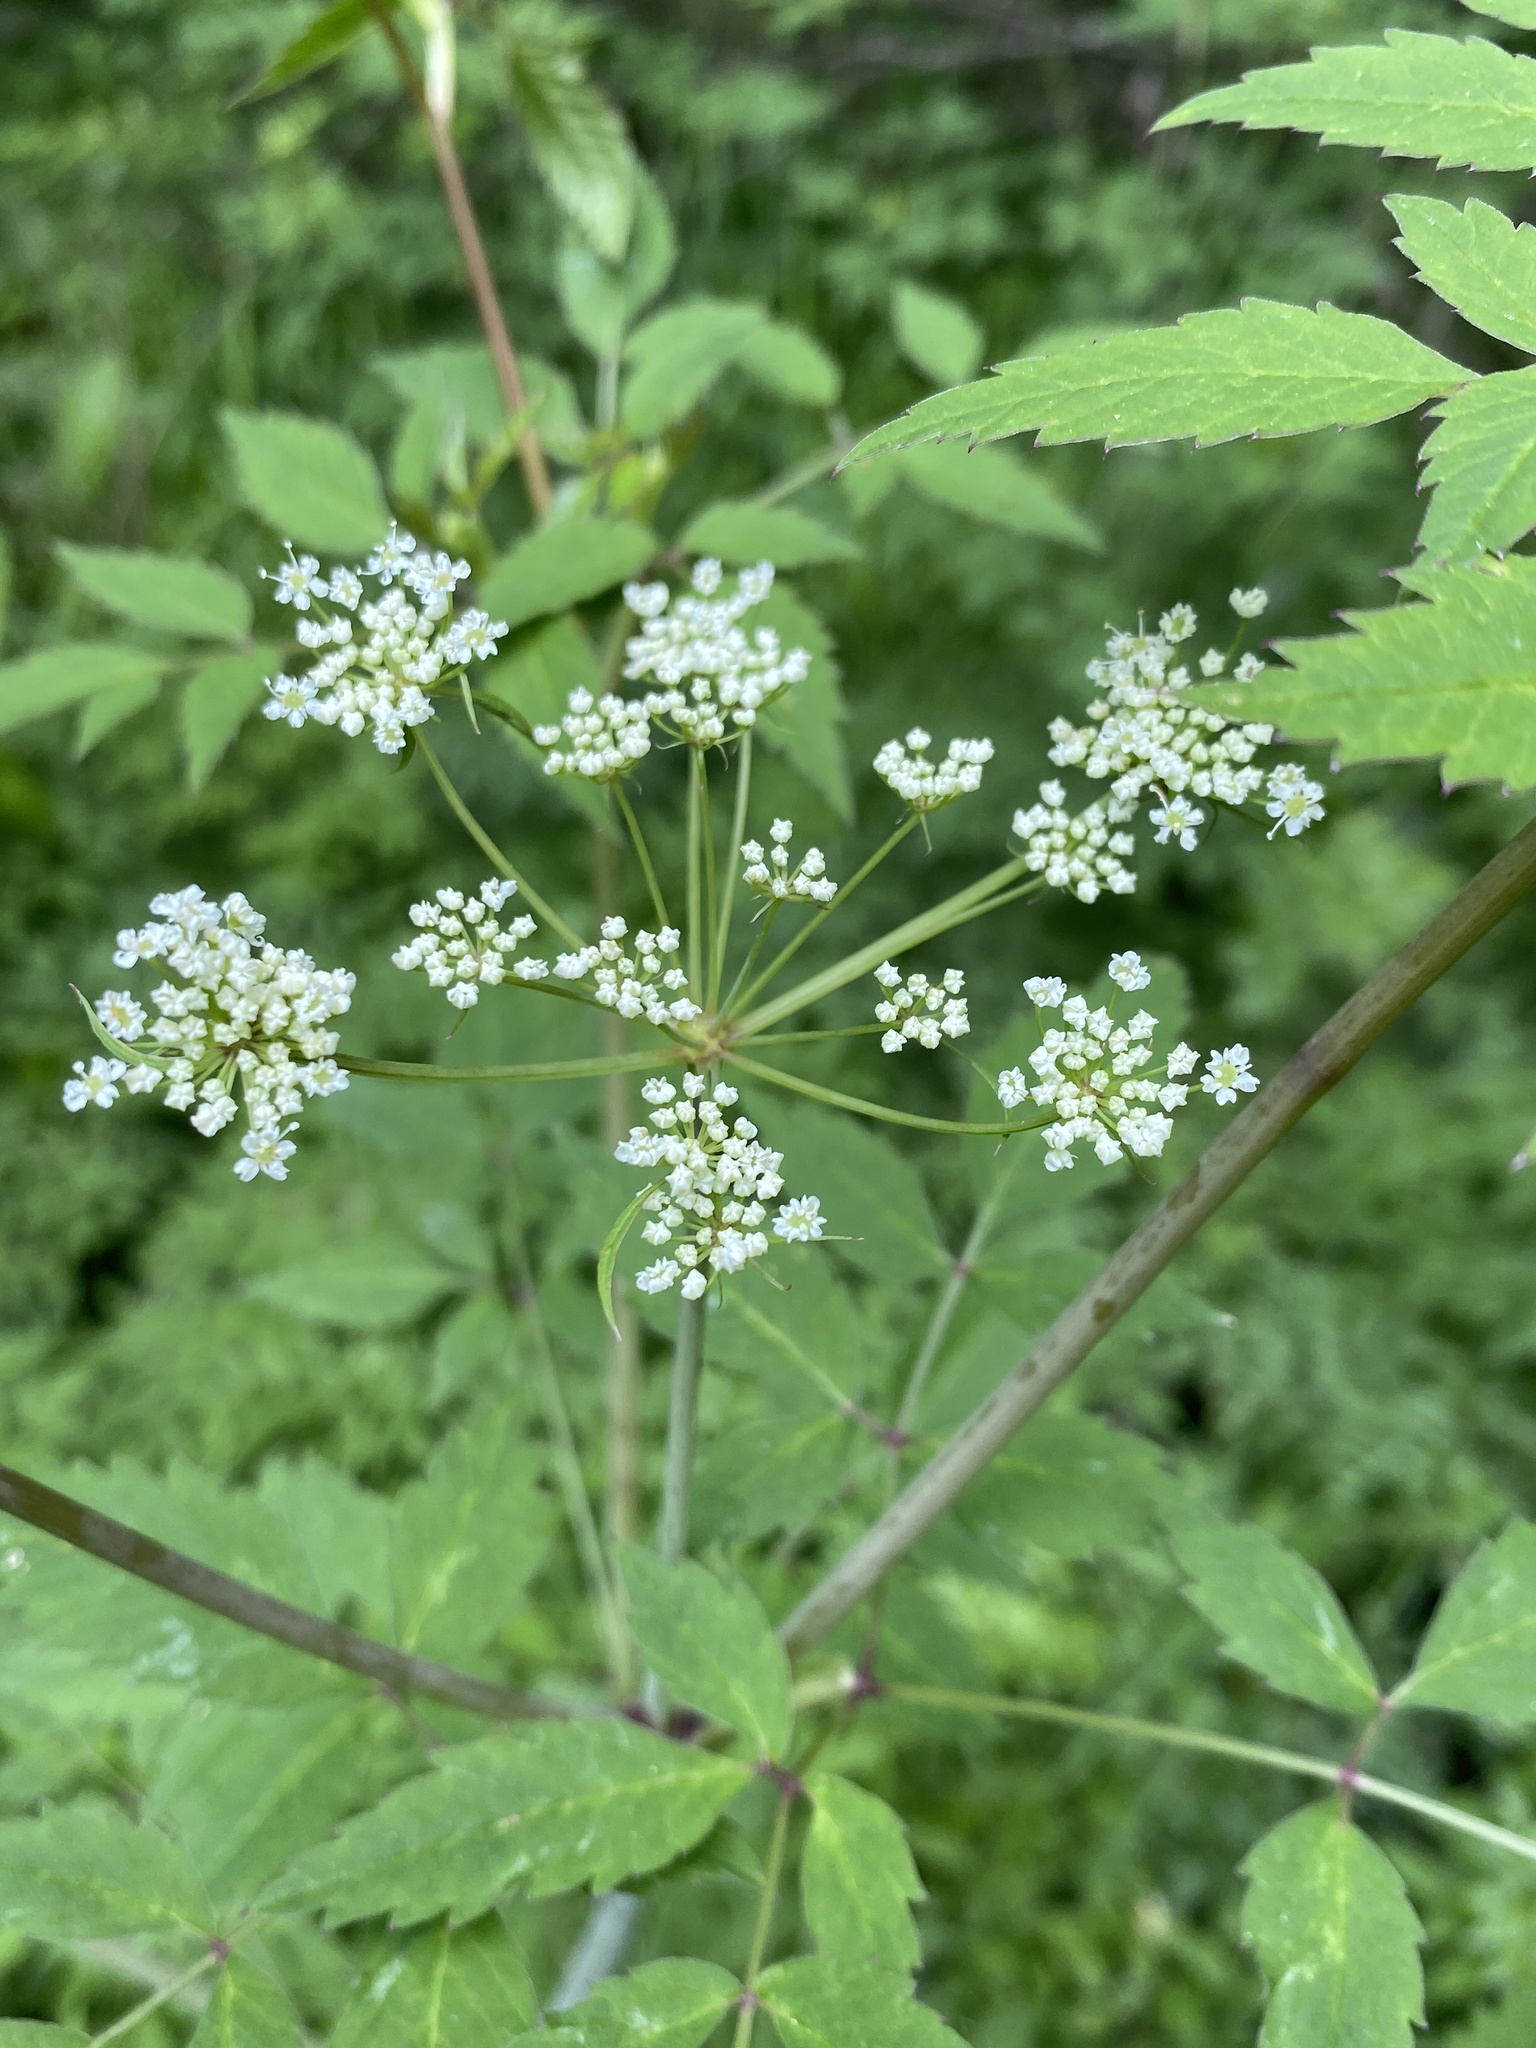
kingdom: Plantae
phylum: Tracheophyta
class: Magnoliopsida
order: Apiales
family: Apiaceae
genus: Cicuta
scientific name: Cicuta maculata
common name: Spotted cowbane
